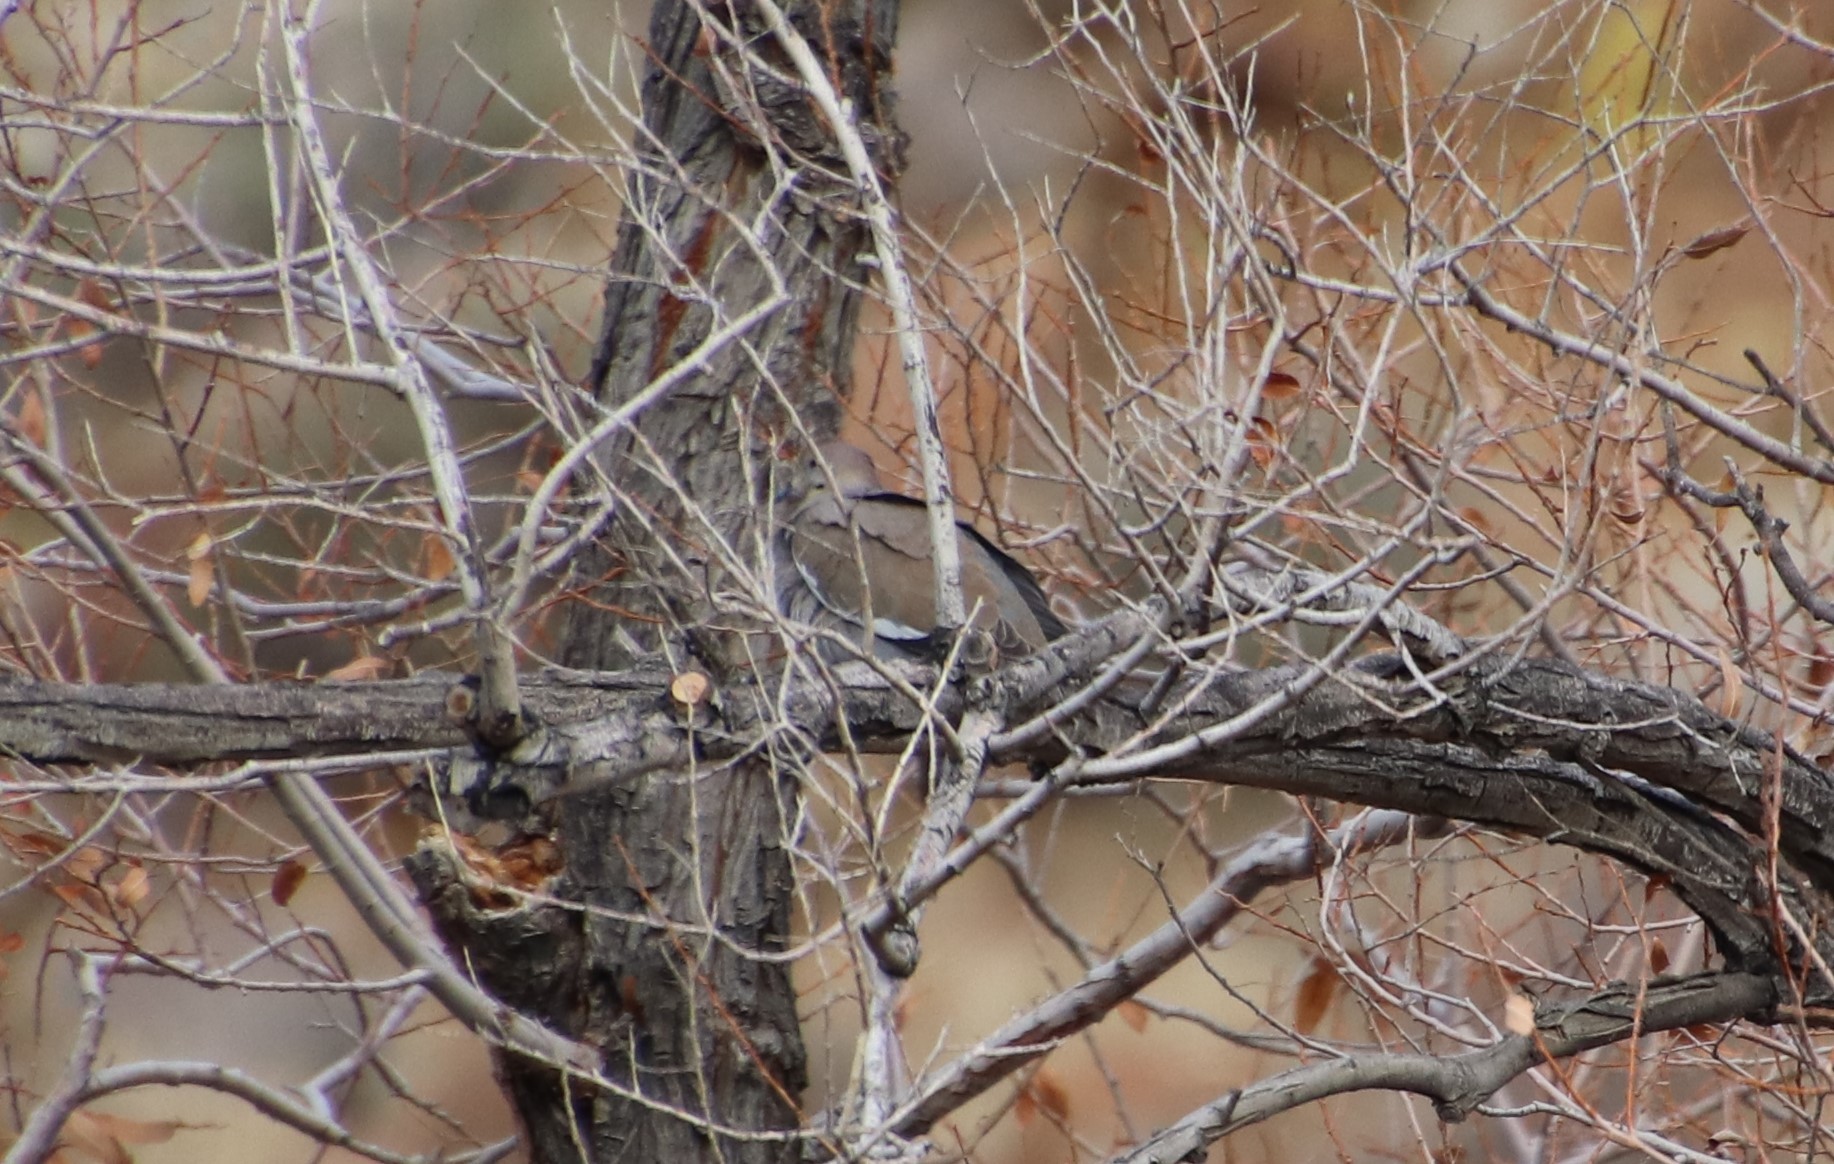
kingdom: Animalia
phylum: Chordata
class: Aves
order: Columbiformes
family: Columbidae
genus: Zenaida
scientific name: Zenaida asiatica
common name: White-winged dove
